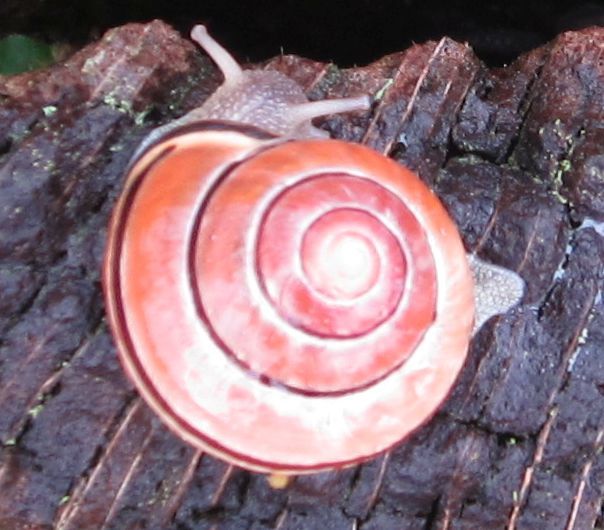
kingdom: Animalia
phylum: Mollusca
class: Gastropoda
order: Stylommatophora
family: Helicidae
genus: Cepaea
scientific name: Cepaea nemoralis
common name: Grovesnail
